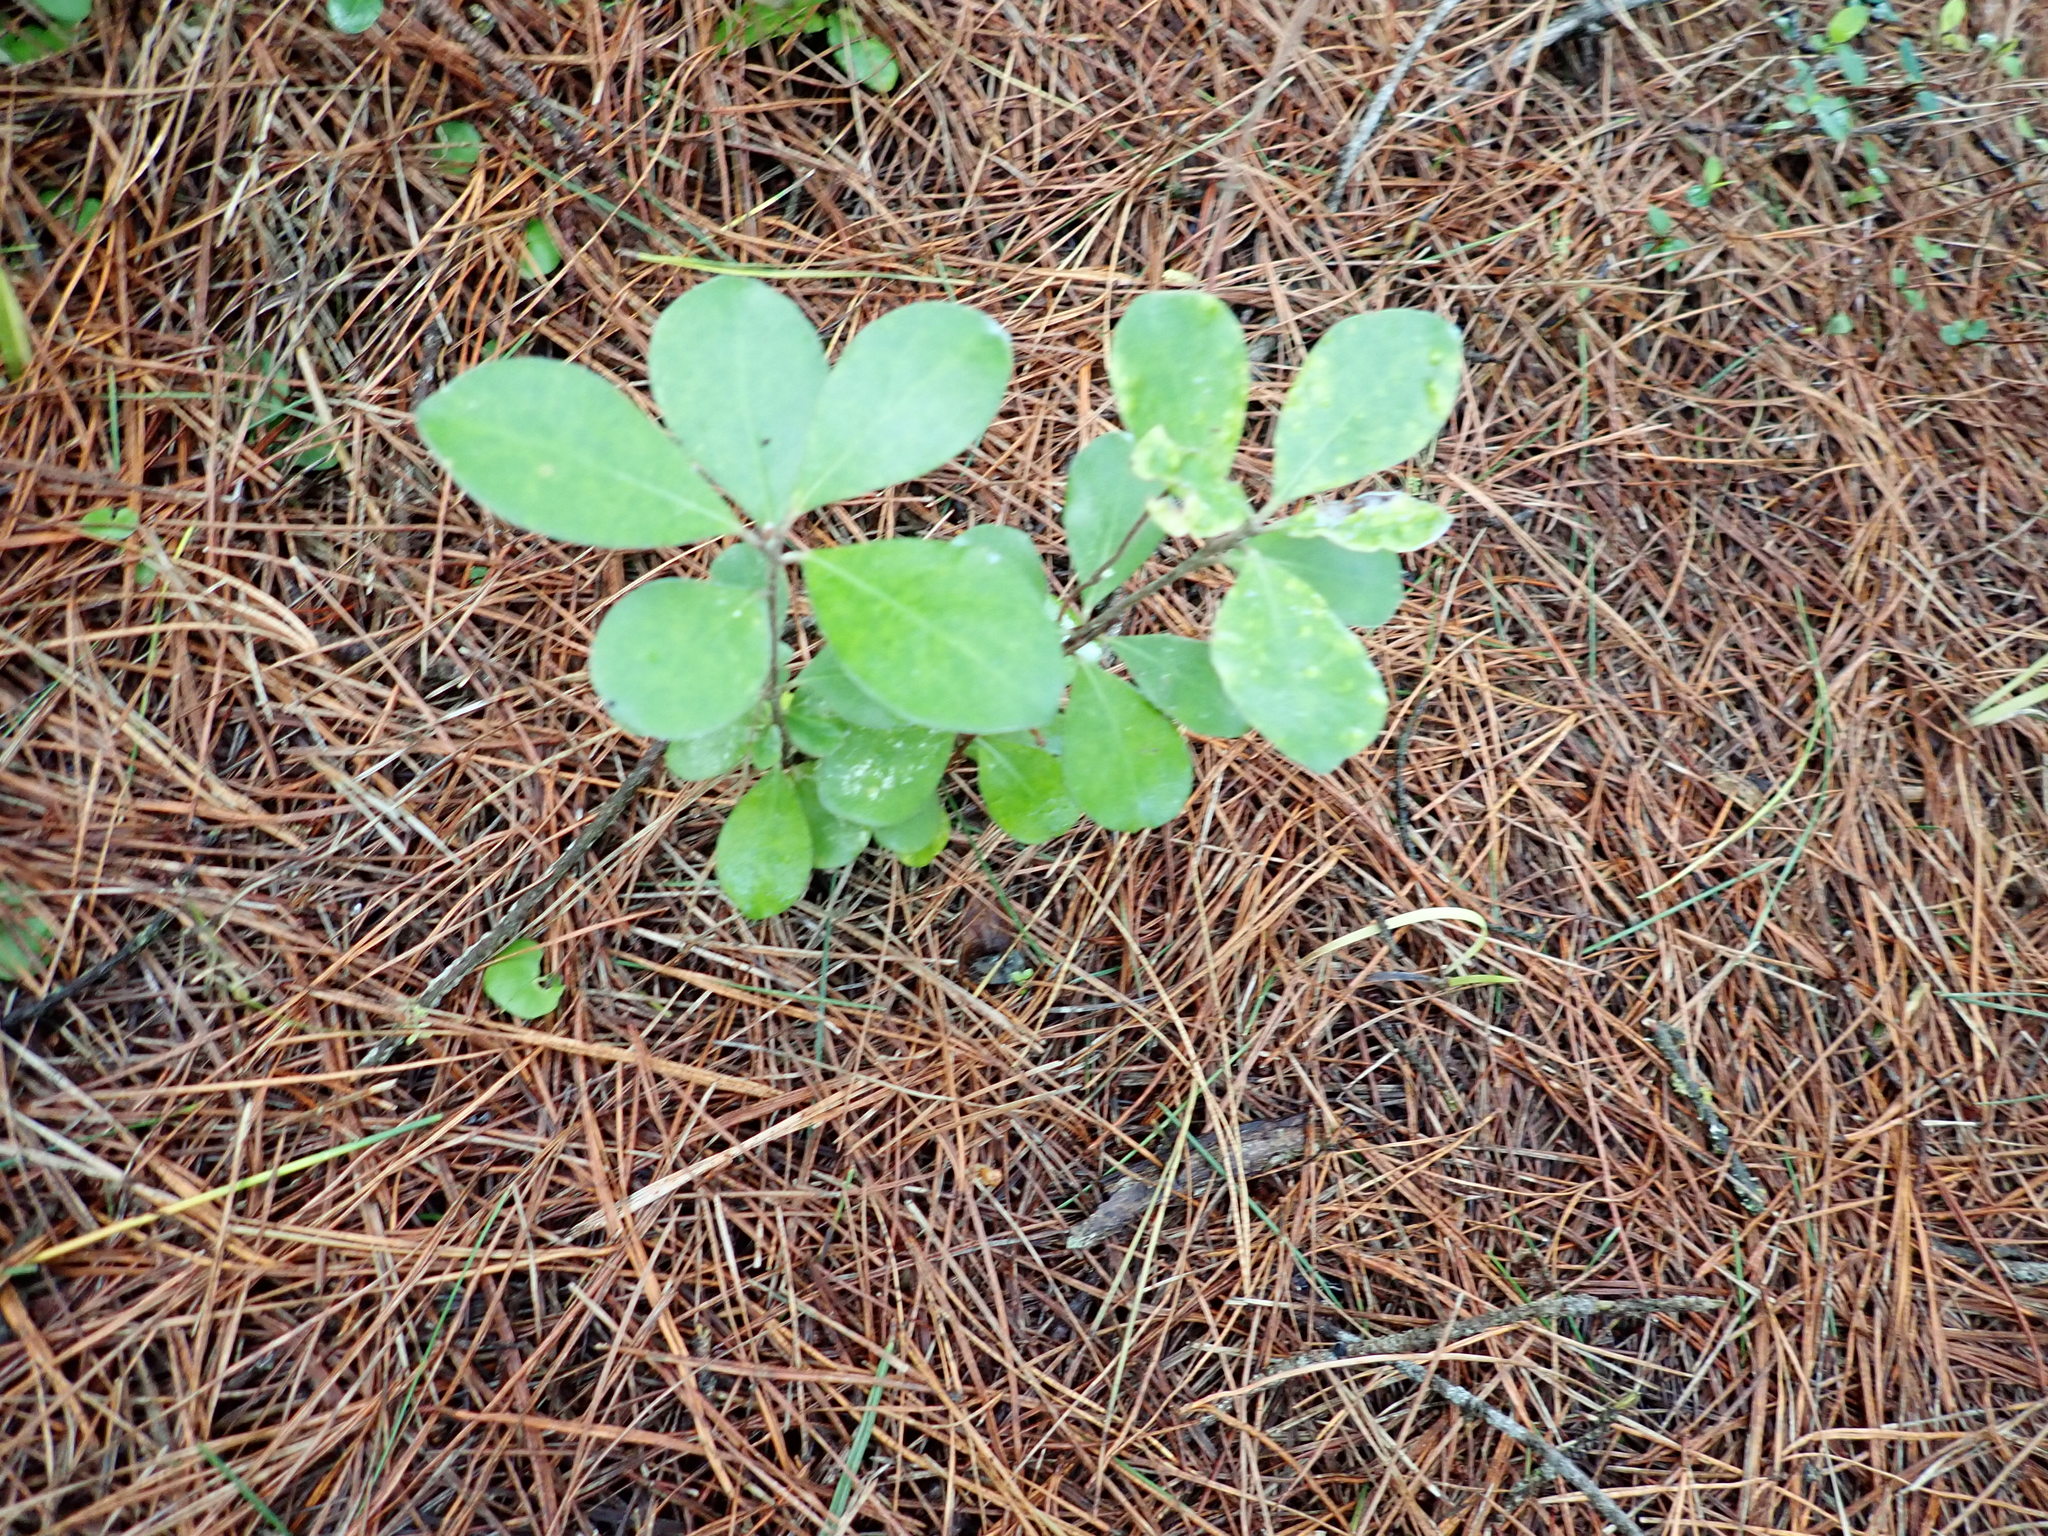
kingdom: Plantae
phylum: Tracheophyta
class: Magnoliopsida
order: Apiales
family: Pittosporaceae
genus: Pittosporum
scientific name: Pittosporum crassifolium
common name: Karo
